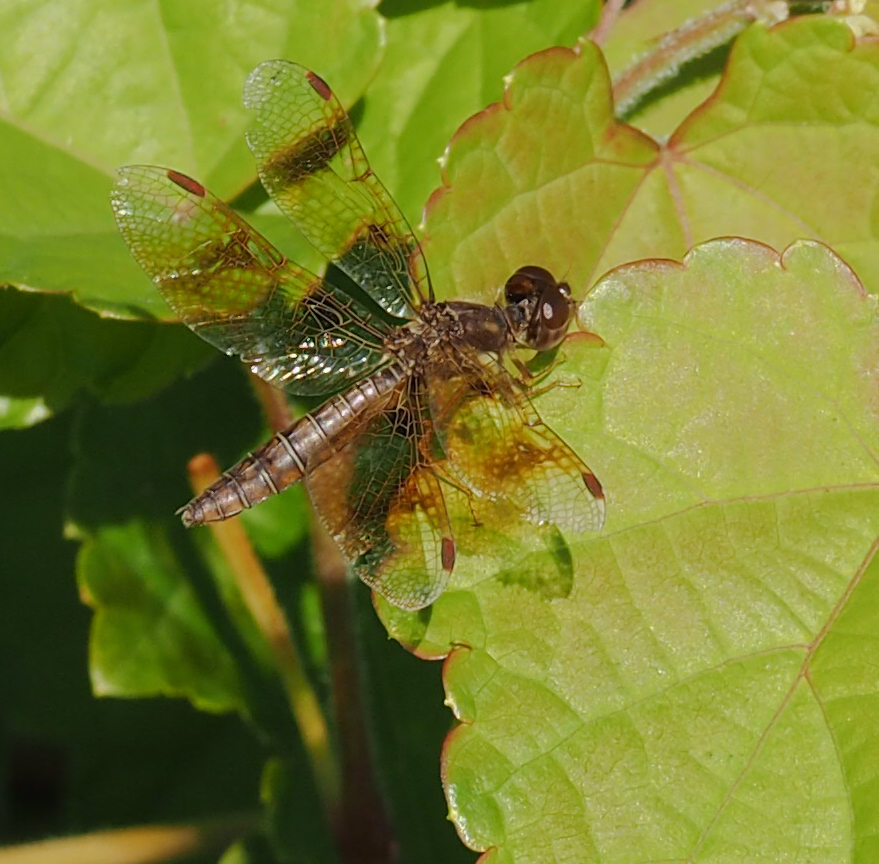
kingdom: Animalia
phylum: Arthropoda
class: Insecta
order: Odonata
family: Libellulidae
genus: Perithemis
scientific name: Perithemis tenera
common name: Eastern amberwing
